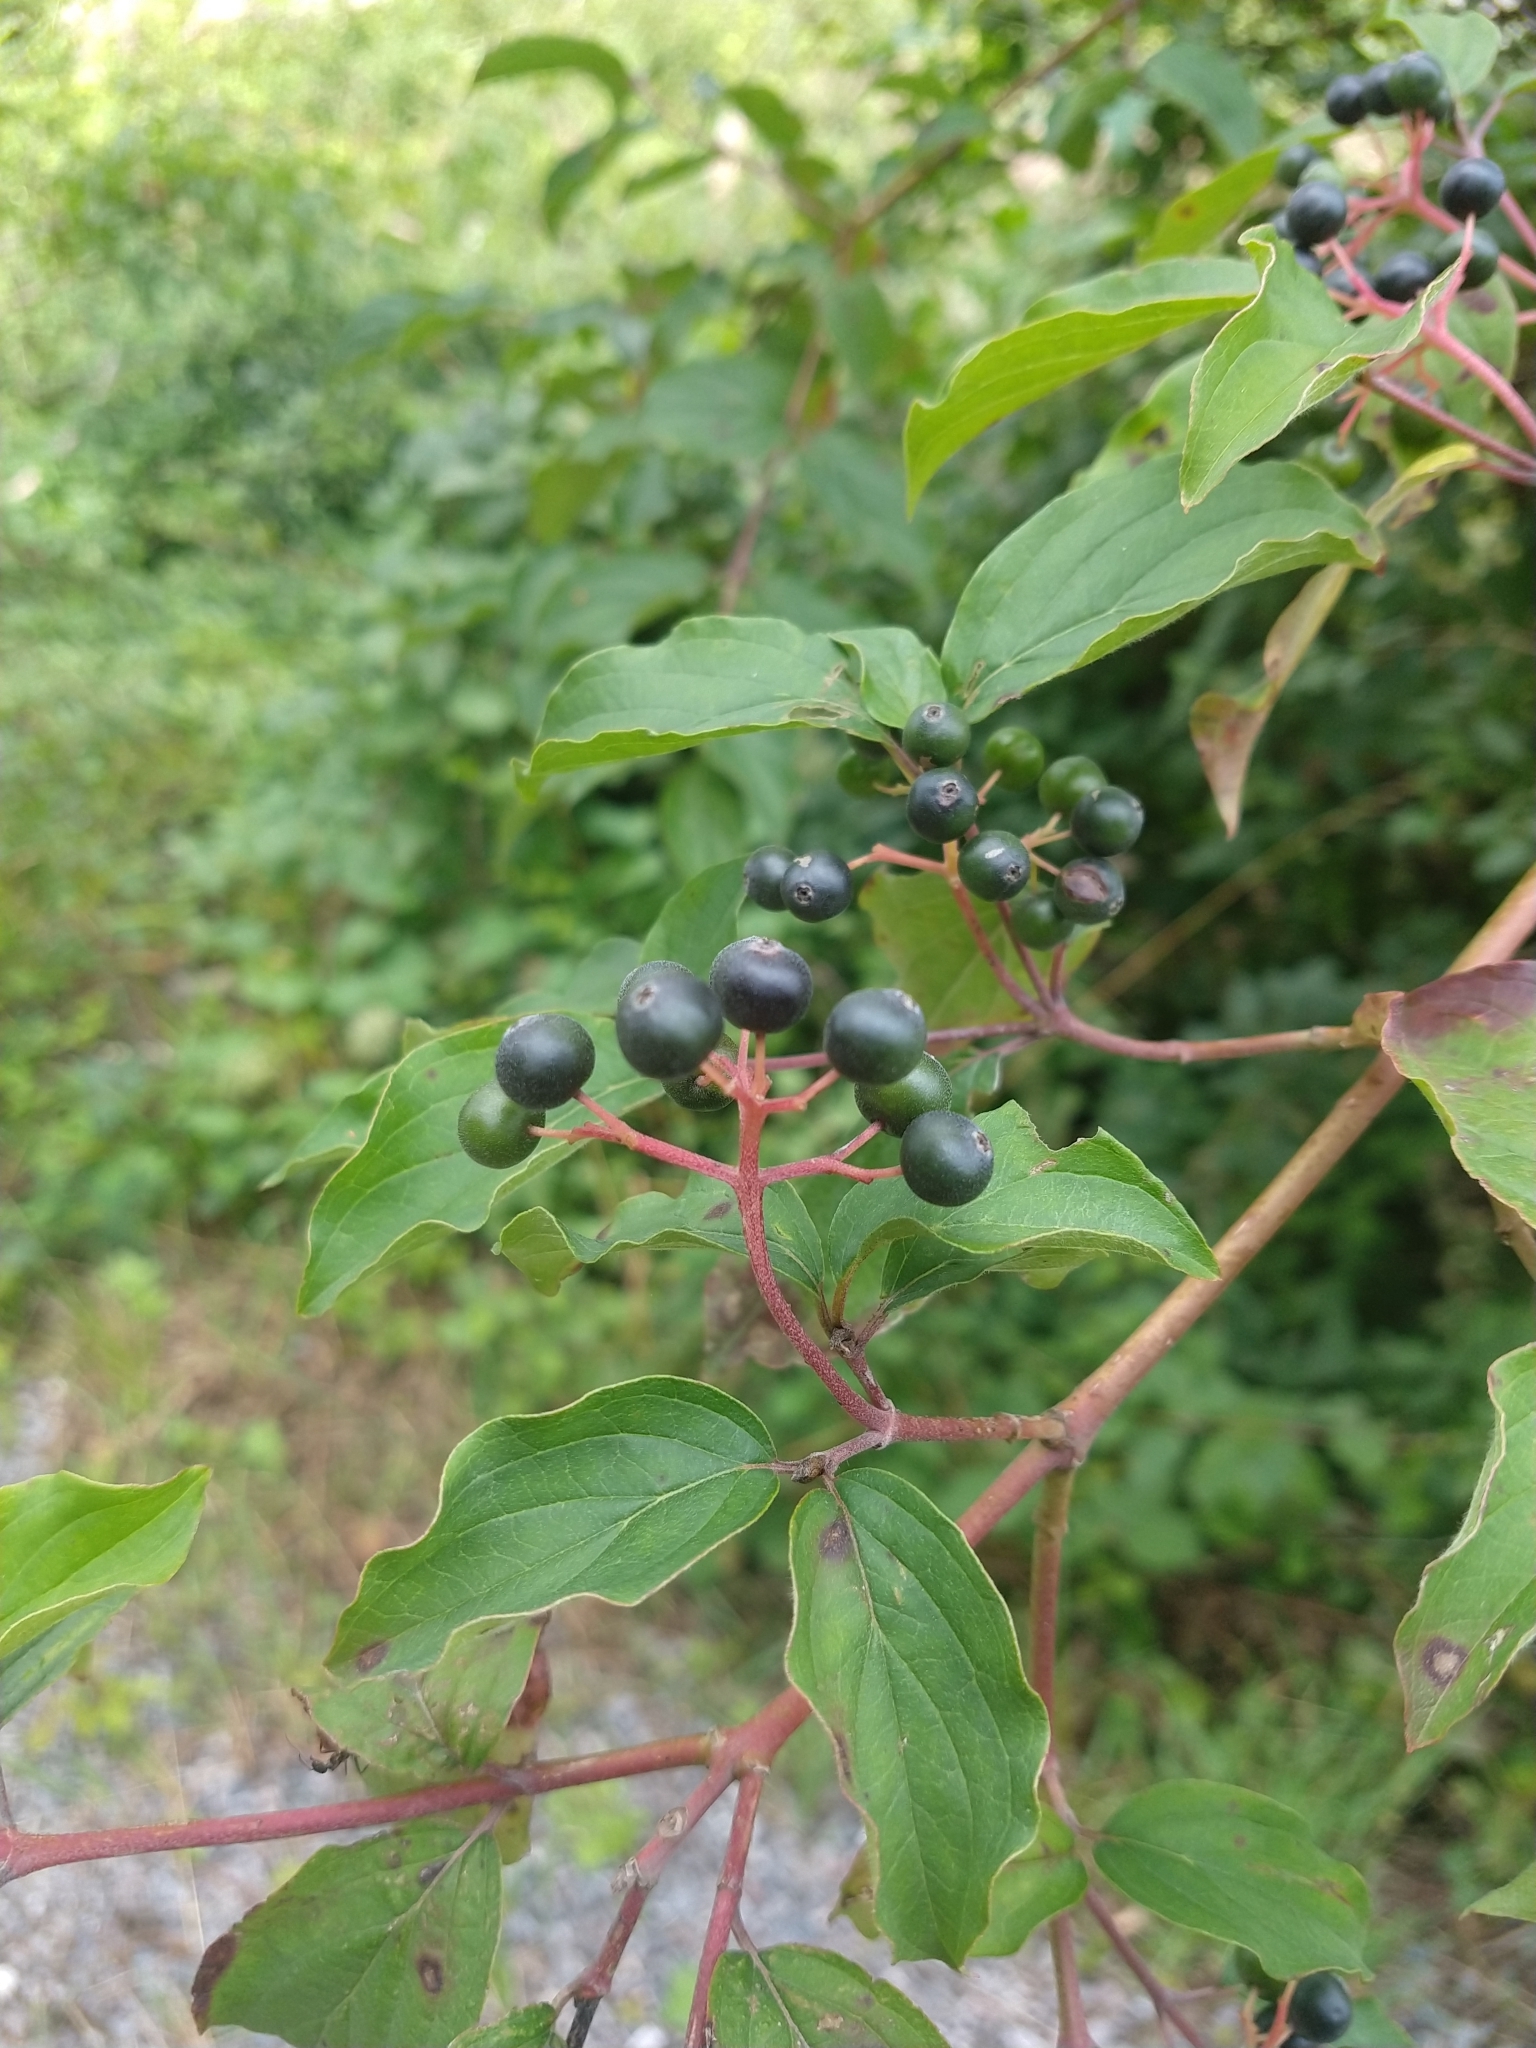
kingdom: Plantae
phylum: Tracheophyta
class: Magnoliopsida
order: Cornales
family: Cornaceae
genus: Cornus
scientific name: Cornus sanguinea
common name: Dogwood
